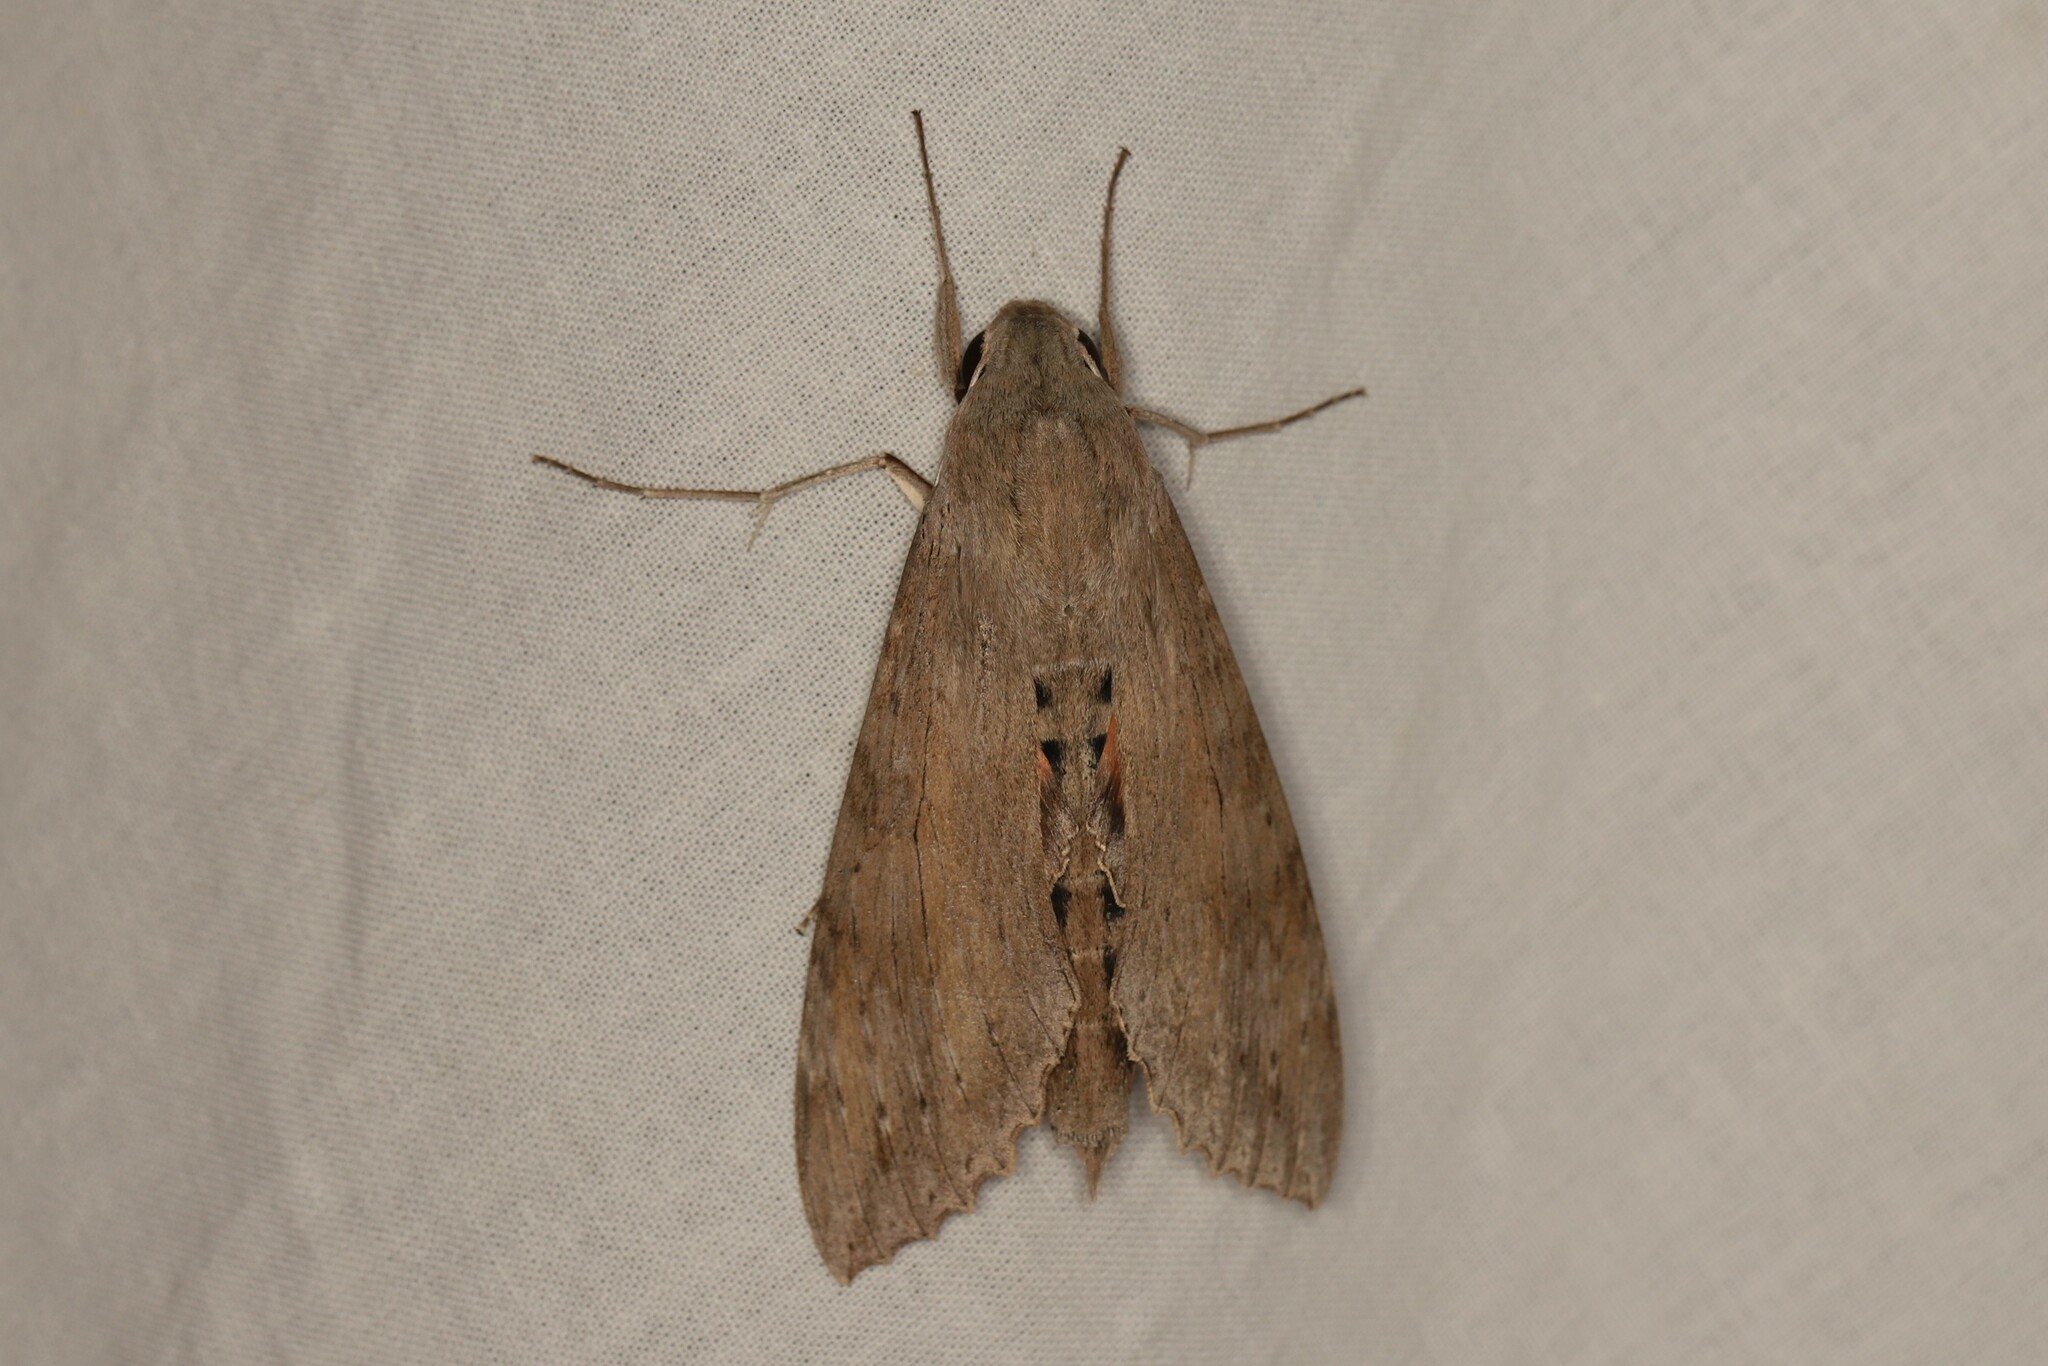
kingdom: Animalia
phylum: Arthropoda
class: Insecta
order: Lepidoptera
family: Sphingidae
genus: Erinnyis
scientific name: Erinnyis ello
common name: Ello sphinx
